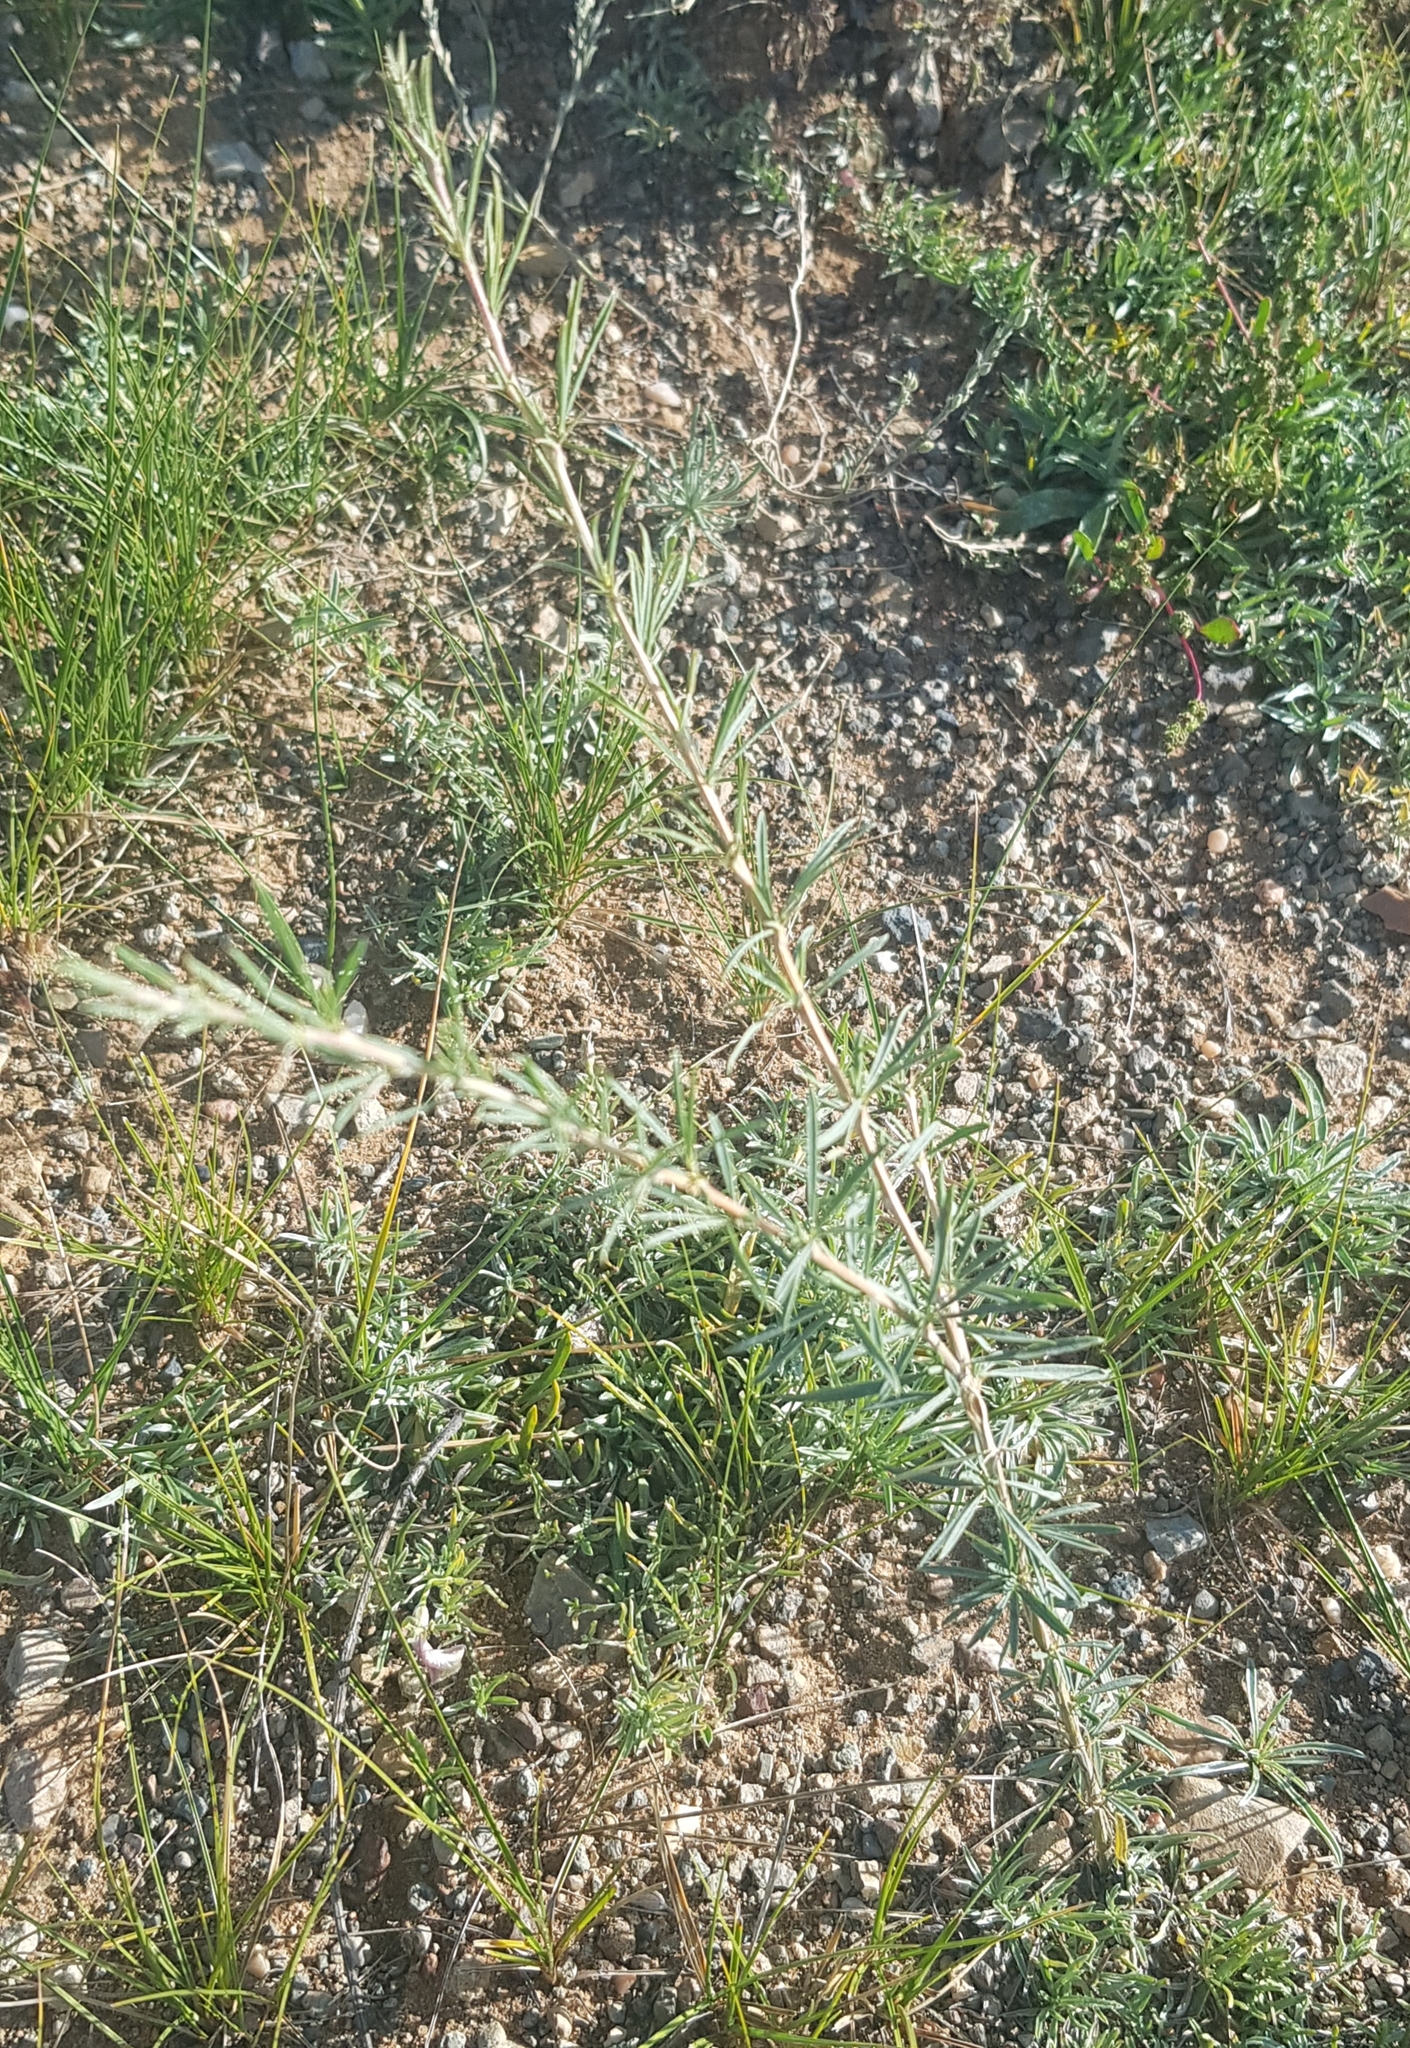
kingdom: Plantae
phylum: Tracheophyta
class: Magnoliopsida
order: Fabales
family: Fabaceae
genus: Caragana
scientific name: Caragana stenophylla
